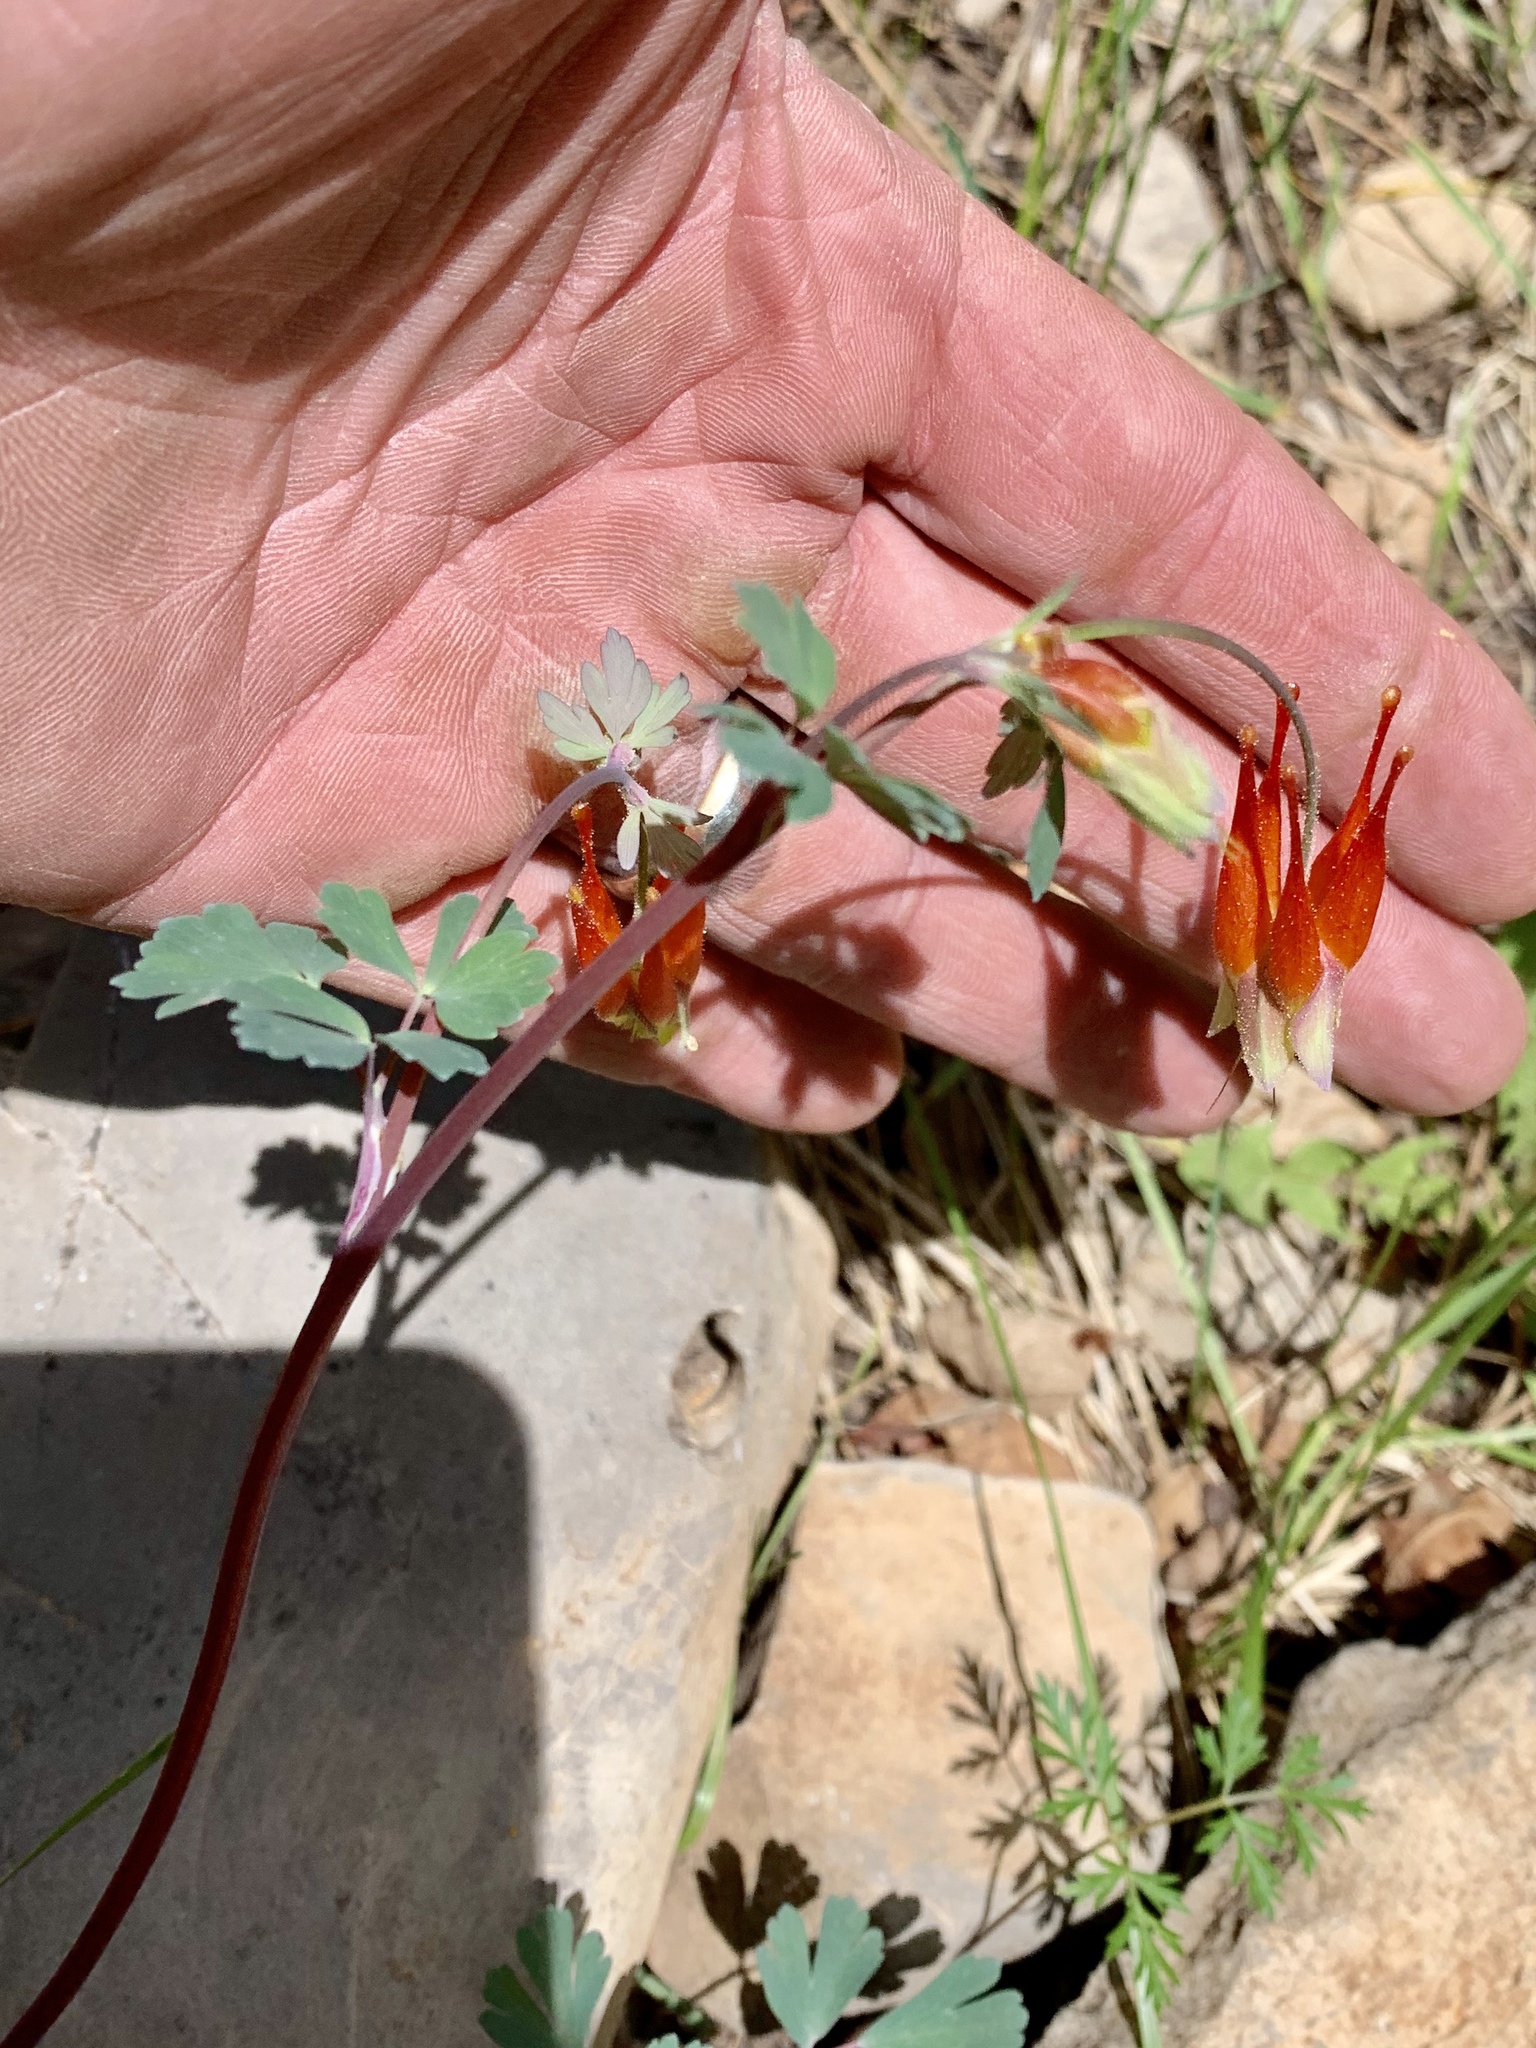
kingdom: Plantae
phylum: Tracheophyta
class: Magnoliopsida
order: Ranunculales
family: Ranunculaceae
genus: Aquilegia
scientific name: Aquilegia elegantula
